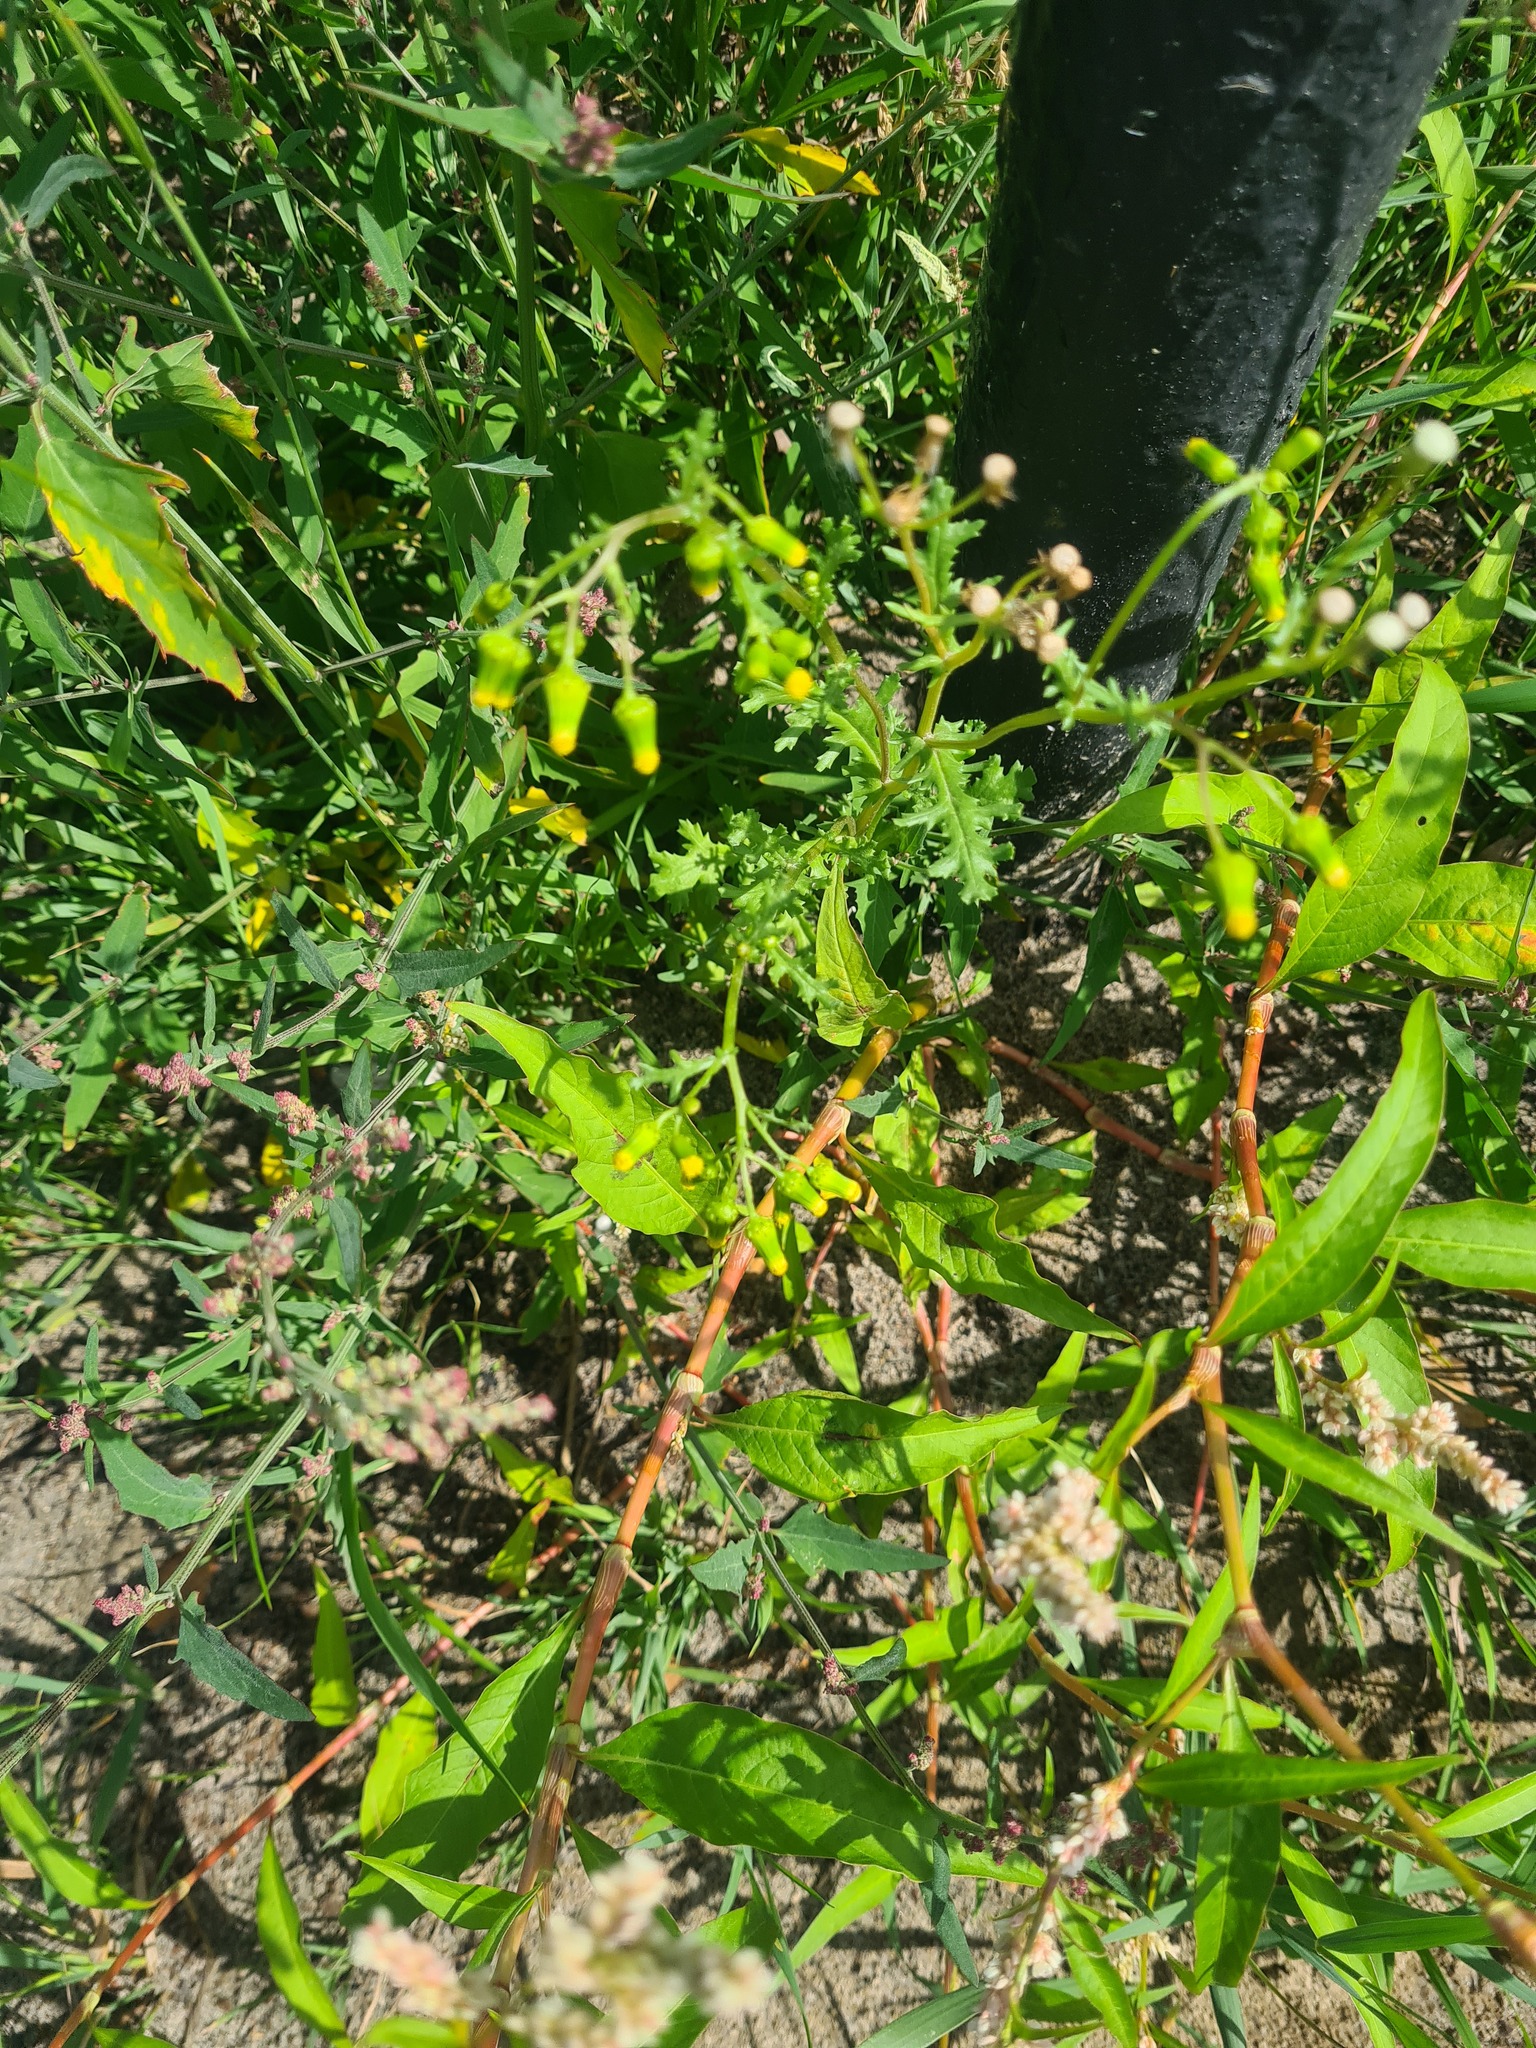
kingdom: Plantae
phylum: Tracheophyta
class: Magnoliopsida
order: Asterales
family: Asteraceae
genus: Senecio
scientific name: Senecio vulgaris
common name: Old-man-in-the-spring
